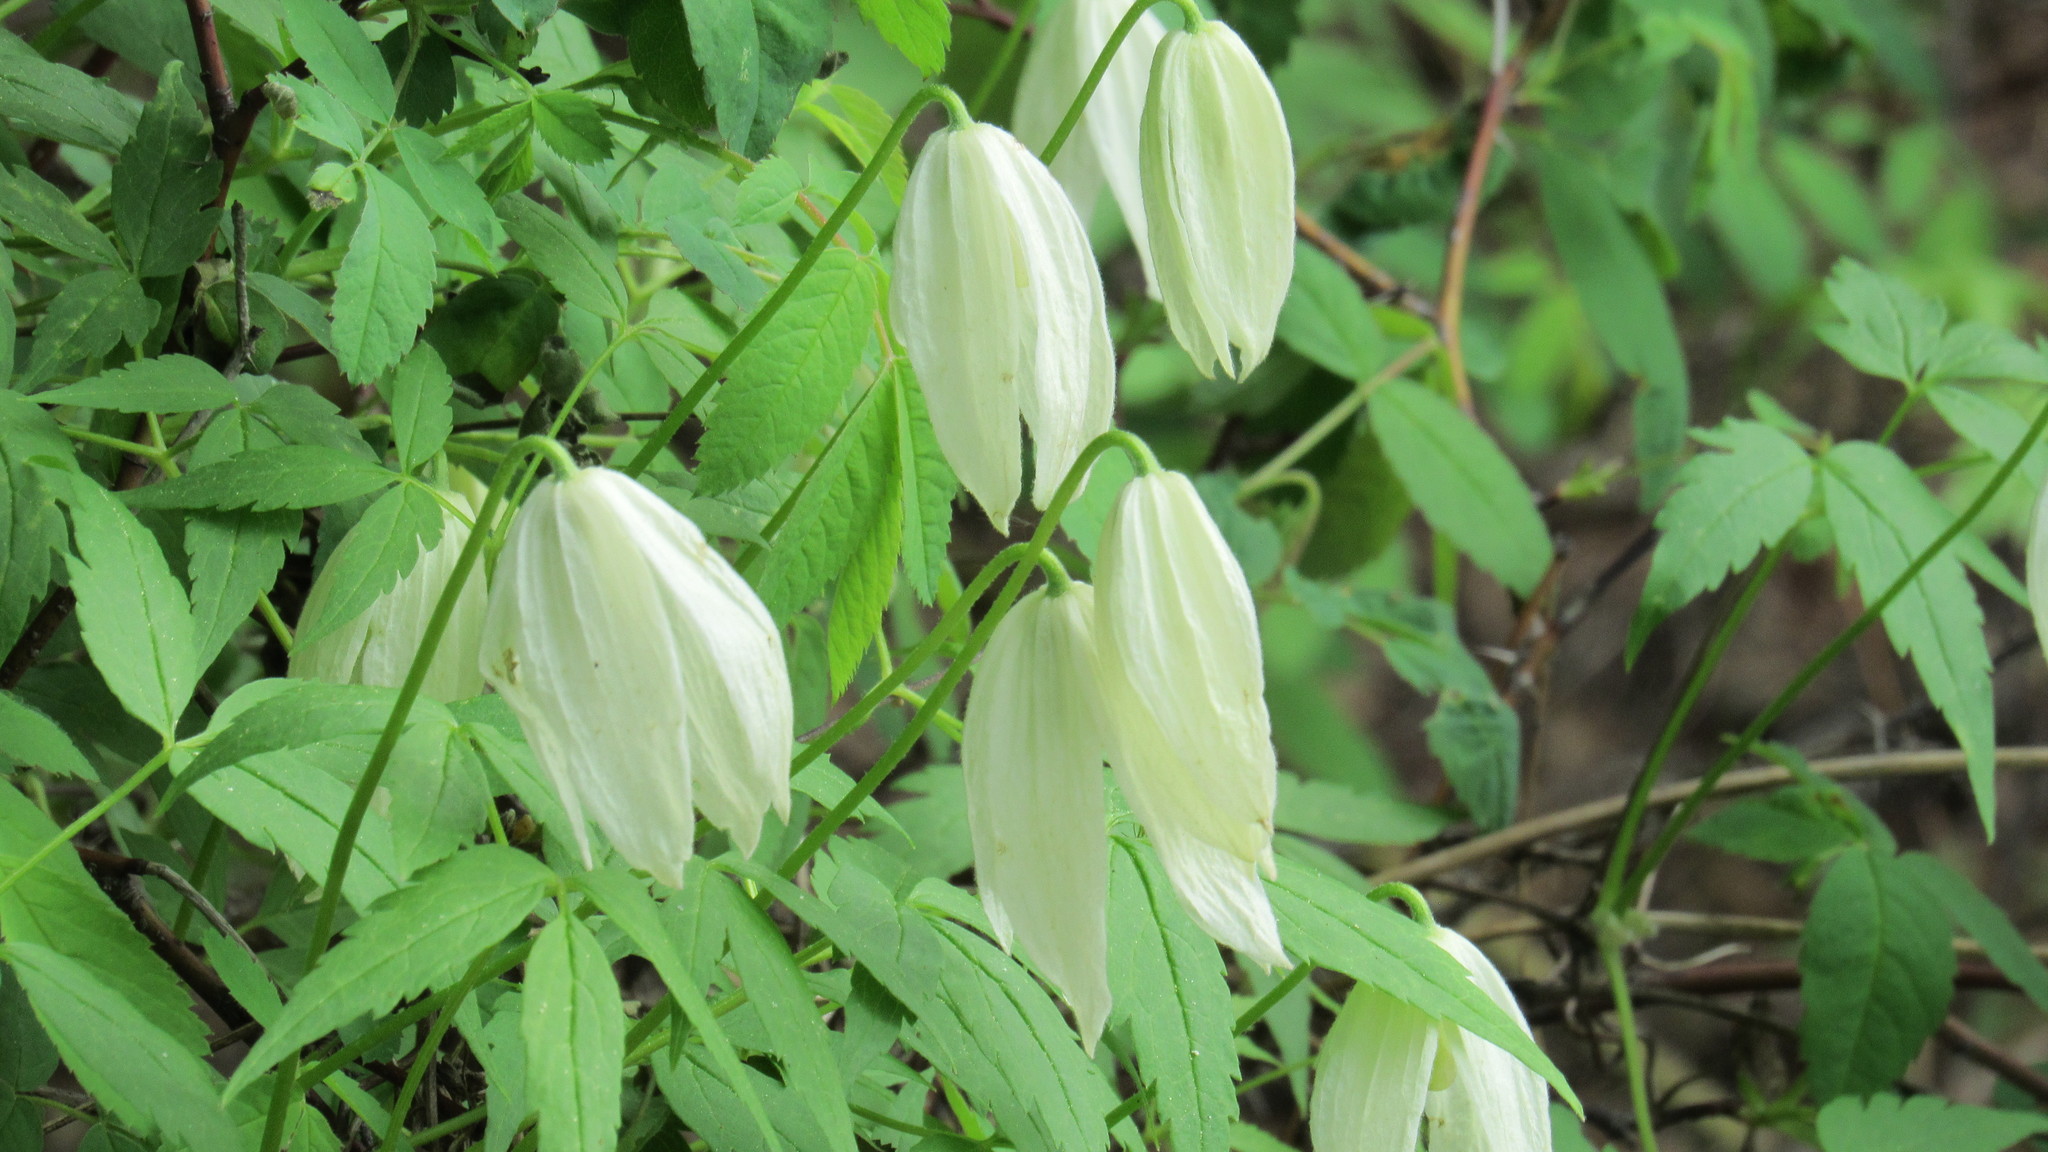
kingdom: Plantae
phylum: Tracheophyta
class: Magnoliopsida
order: Ranunculales
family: Ranunculaceae
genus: Clematis
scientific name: Clematis sibirica
